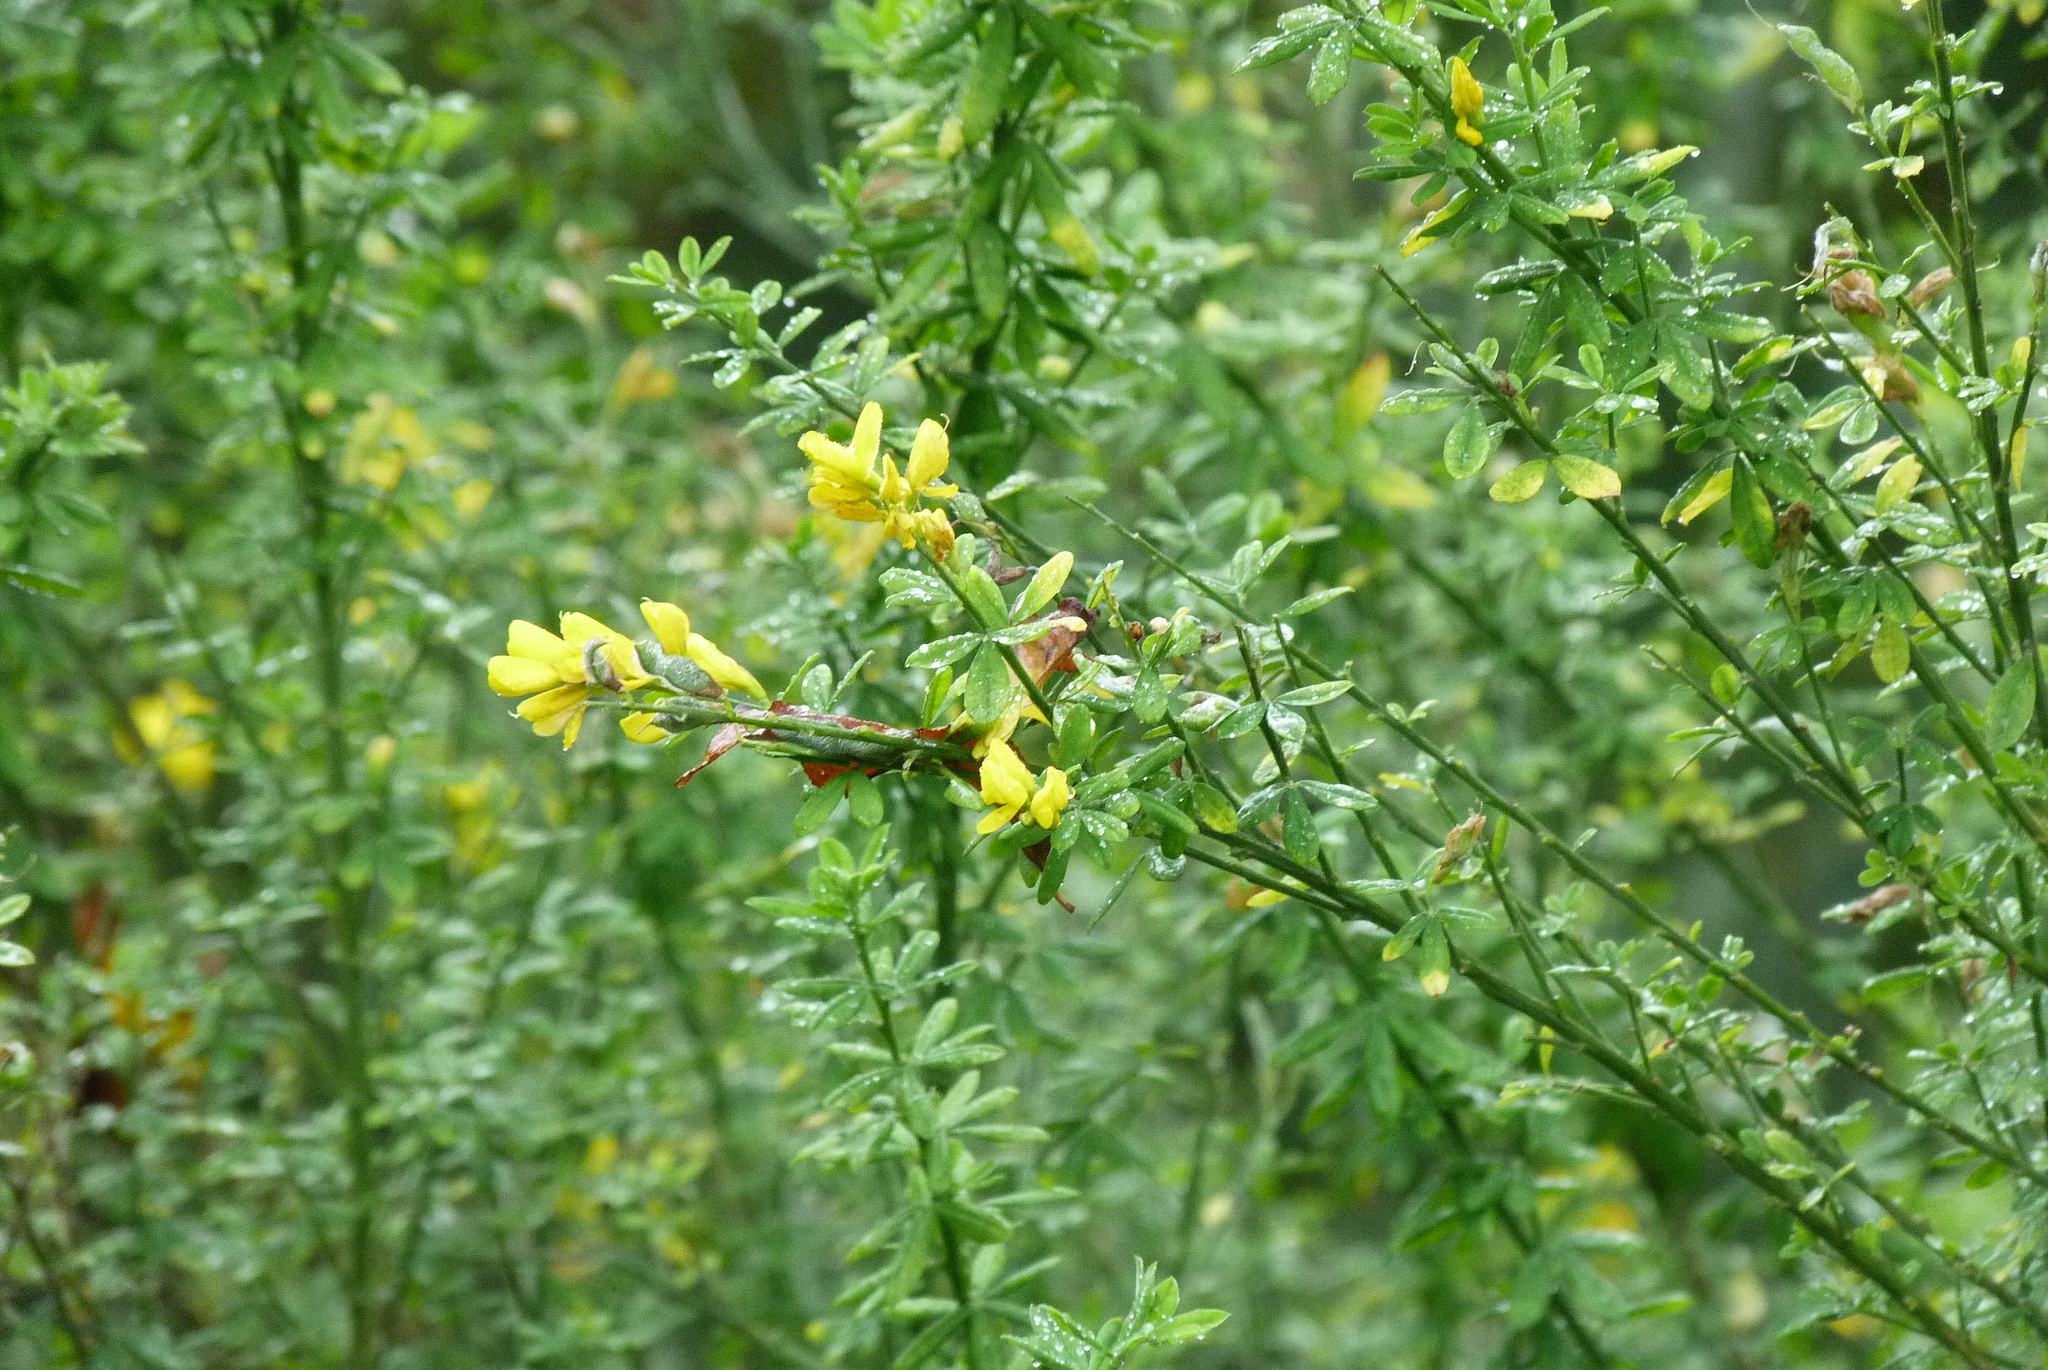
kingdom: Plantae
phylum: Tracheophyta
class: Magnoliopsida
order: Fabales
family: Fabaceae
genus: Genista
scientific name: Genista monspessulana
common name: Montpellier broom
